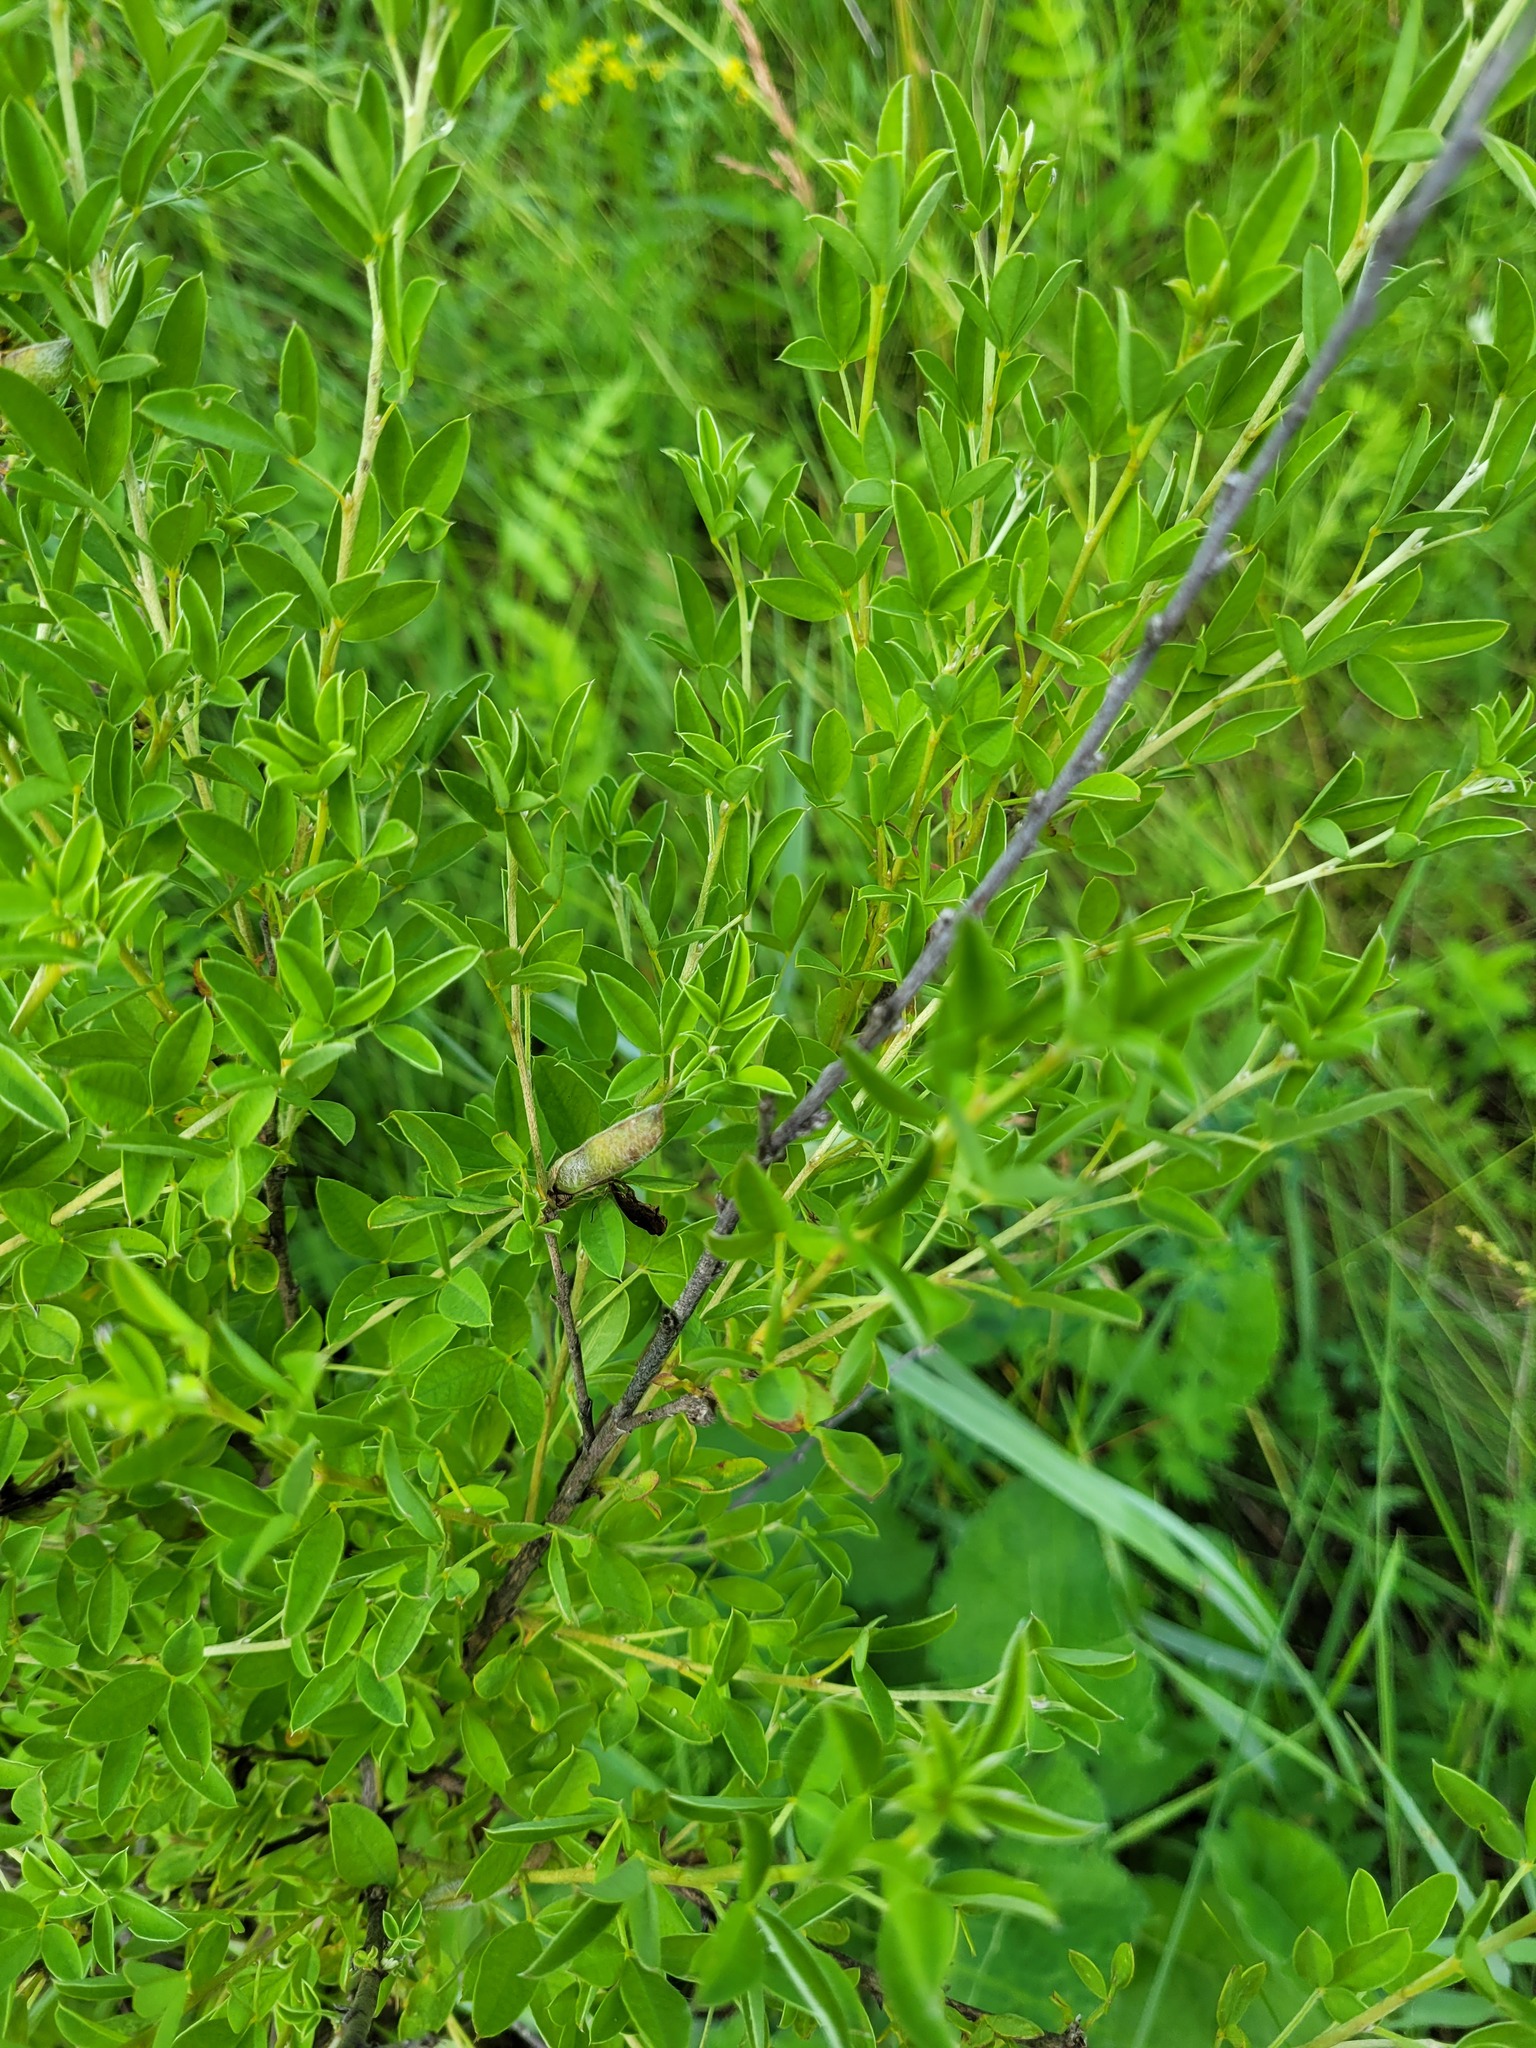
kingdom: Plantae
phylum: Tracheophyta
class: Magnoliopsida
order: Fabales
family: Fabaceae
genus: Chamaecytisus
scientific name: Chamaecytisus ruthenicus
